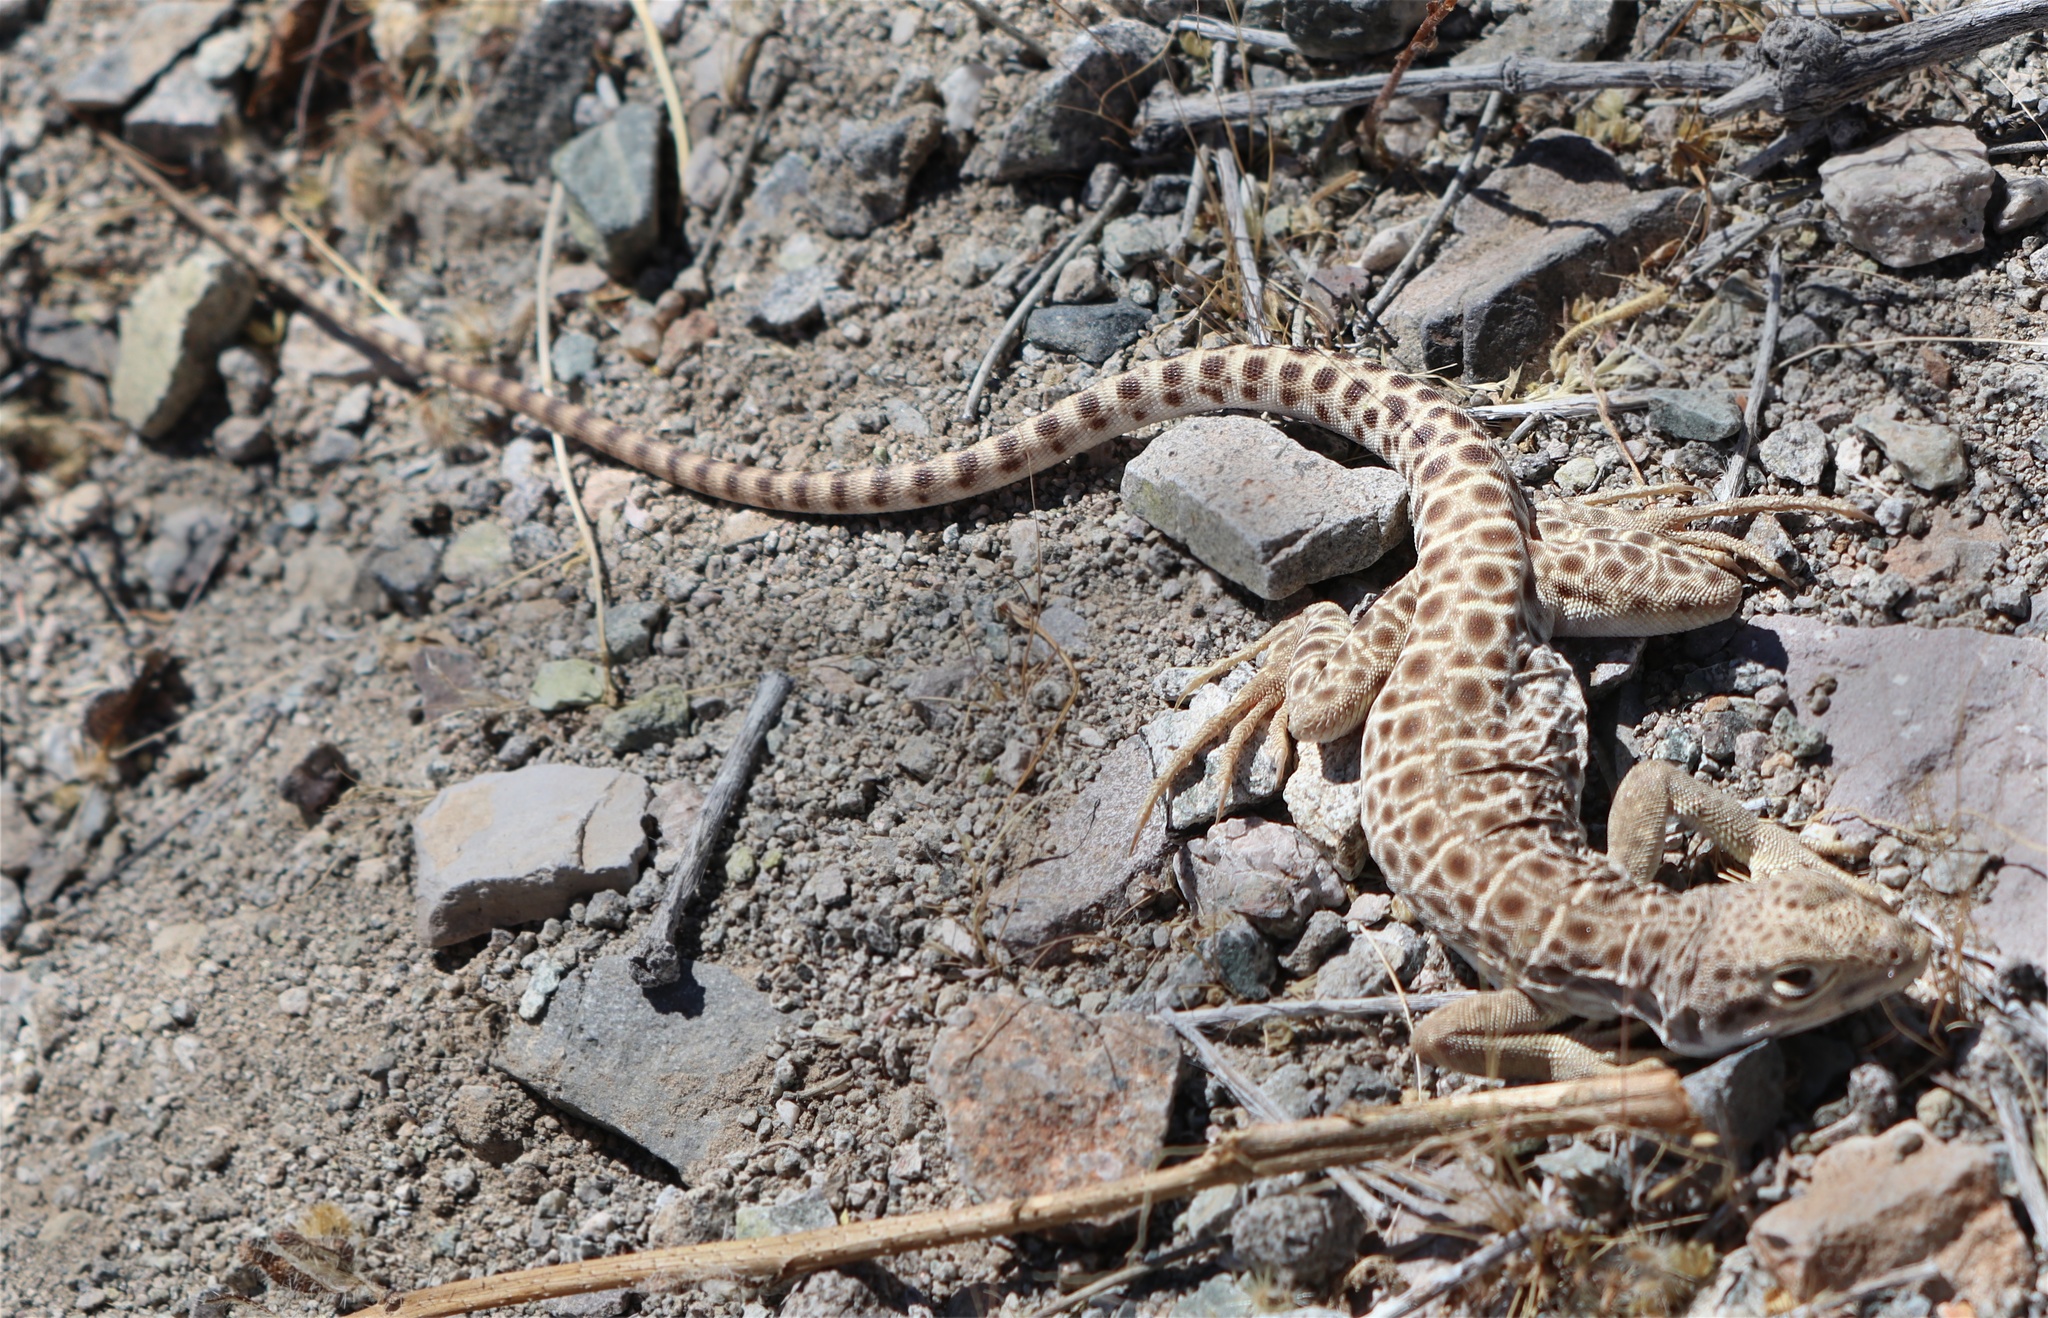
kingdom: Animalia
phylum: Chordata
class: Squamata
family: Crotaphytidae
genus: Gambelia
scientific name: Gambelia wislizenii
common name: Longnose leopard lizard
